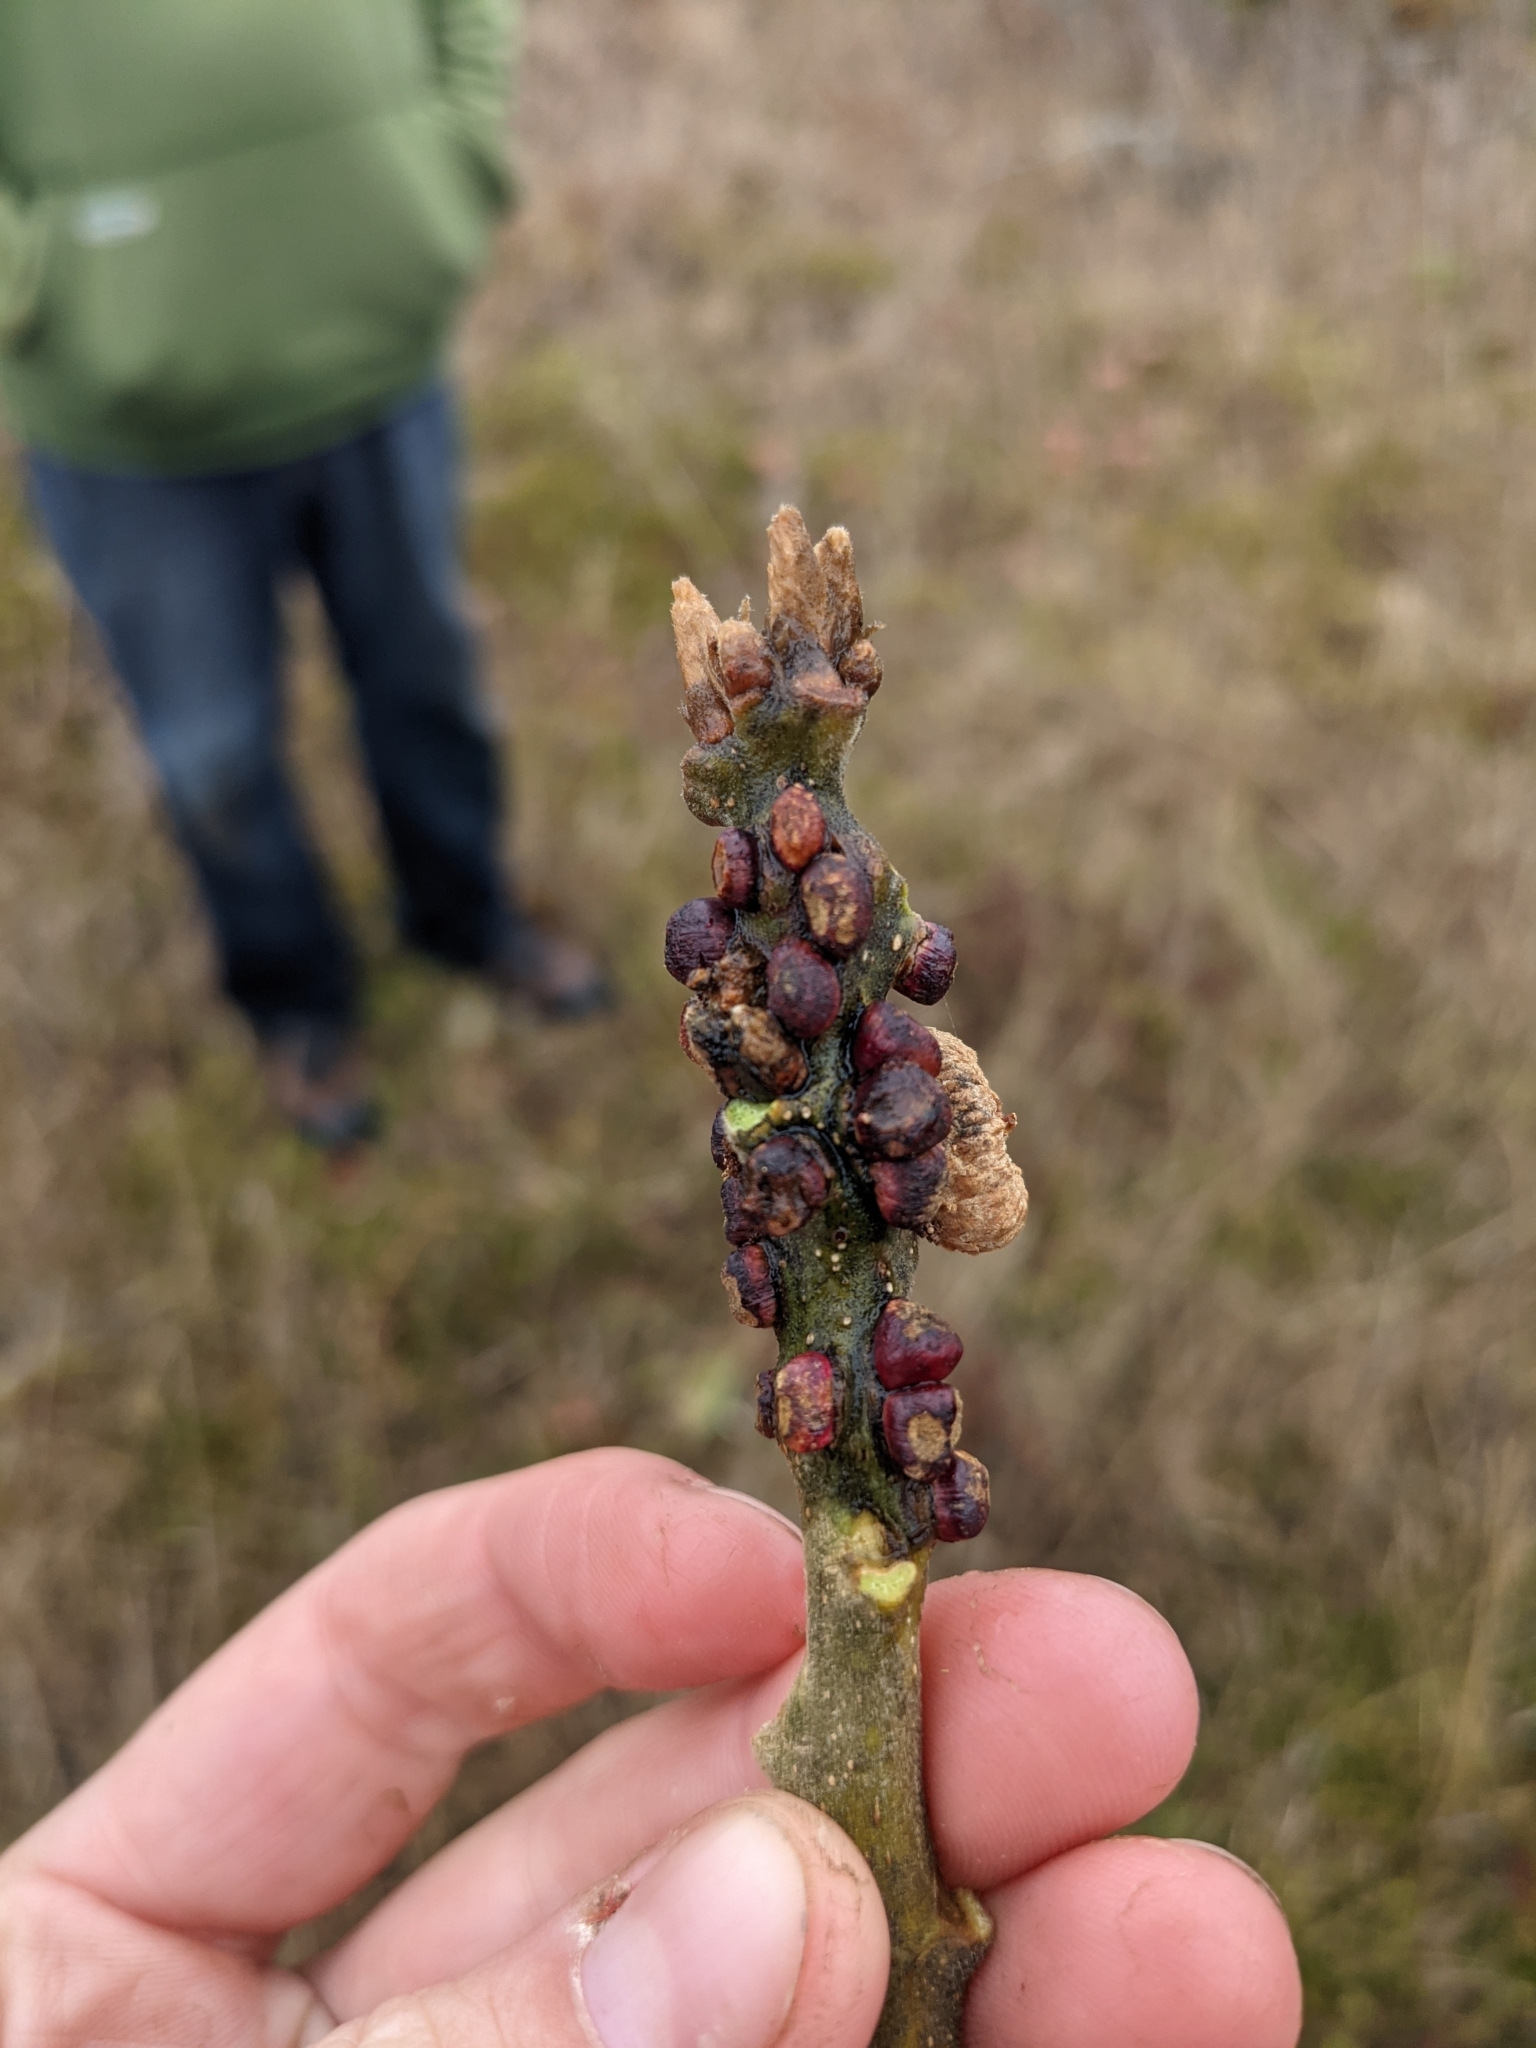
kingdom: Animalia
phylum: Arthropoda
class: Insecta
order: Hymenoptera
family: Cynipidae
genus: Disholcaspis
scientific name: Disholcaspis
